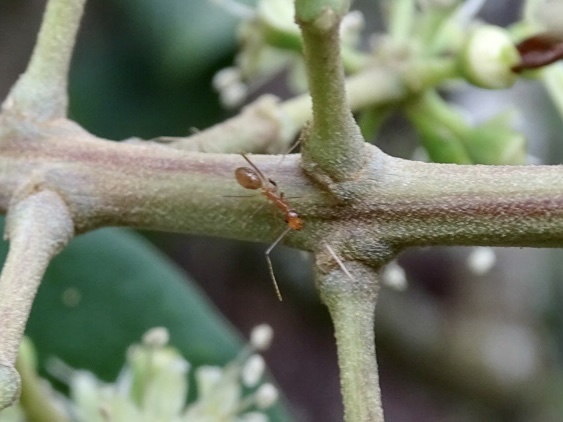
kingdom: Animalia
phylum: Arthropoda
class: Insecta
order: Hymenoptera
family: Formicidae
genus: Anoplolepis
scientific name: Anoplolepis gracilipes
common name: Ant
